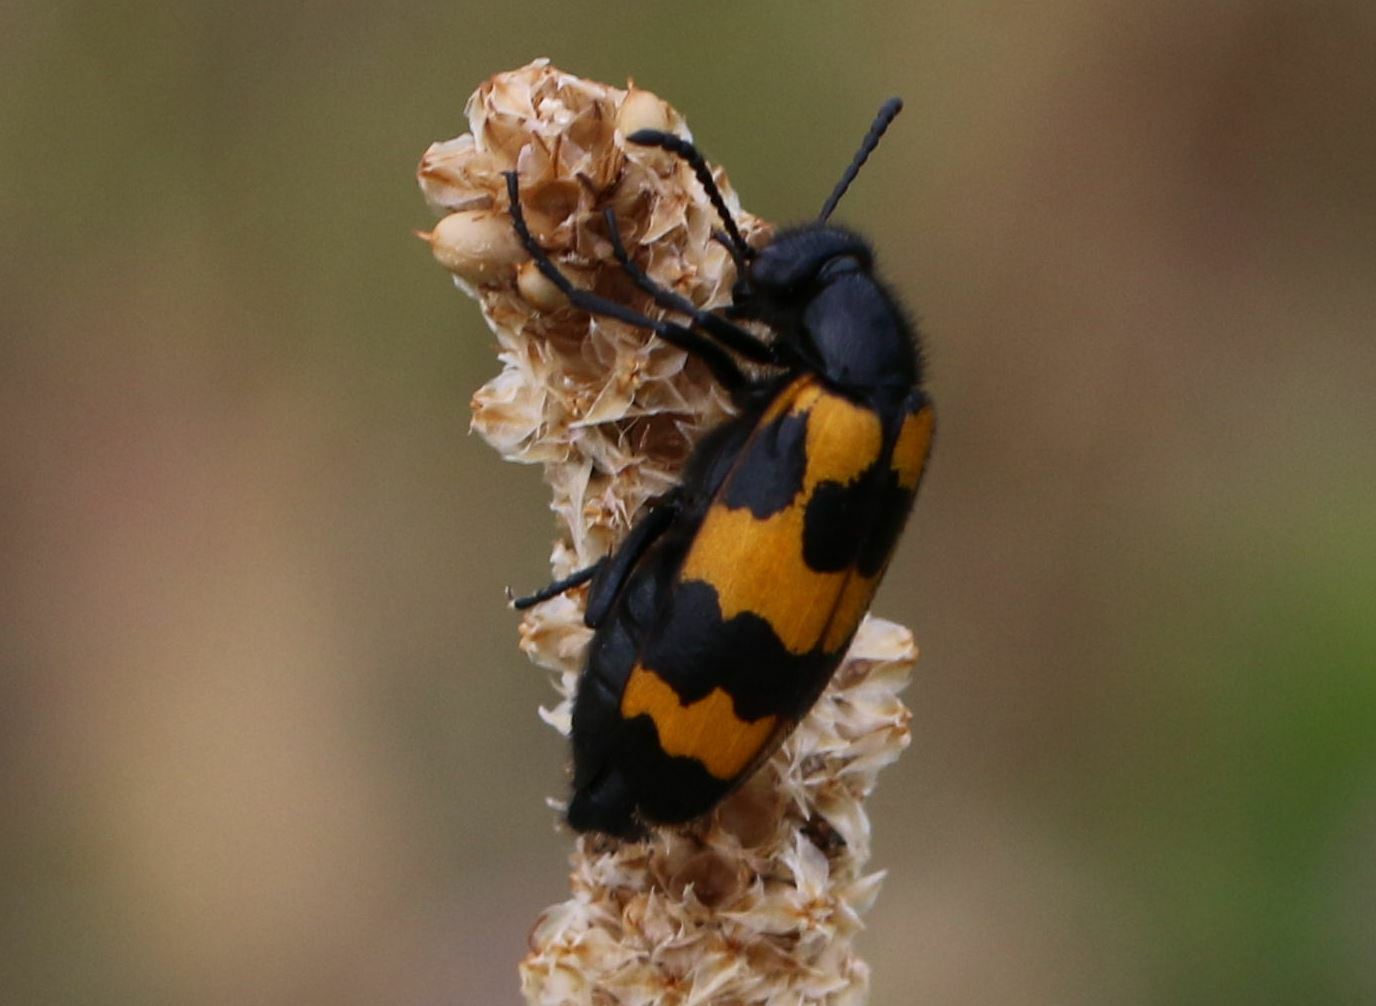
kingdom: Animalia
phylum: Arthropoda
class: Insecta
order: Coleoptera
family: Meloidae
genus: Mylabris
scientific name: Mylabris variabilis
